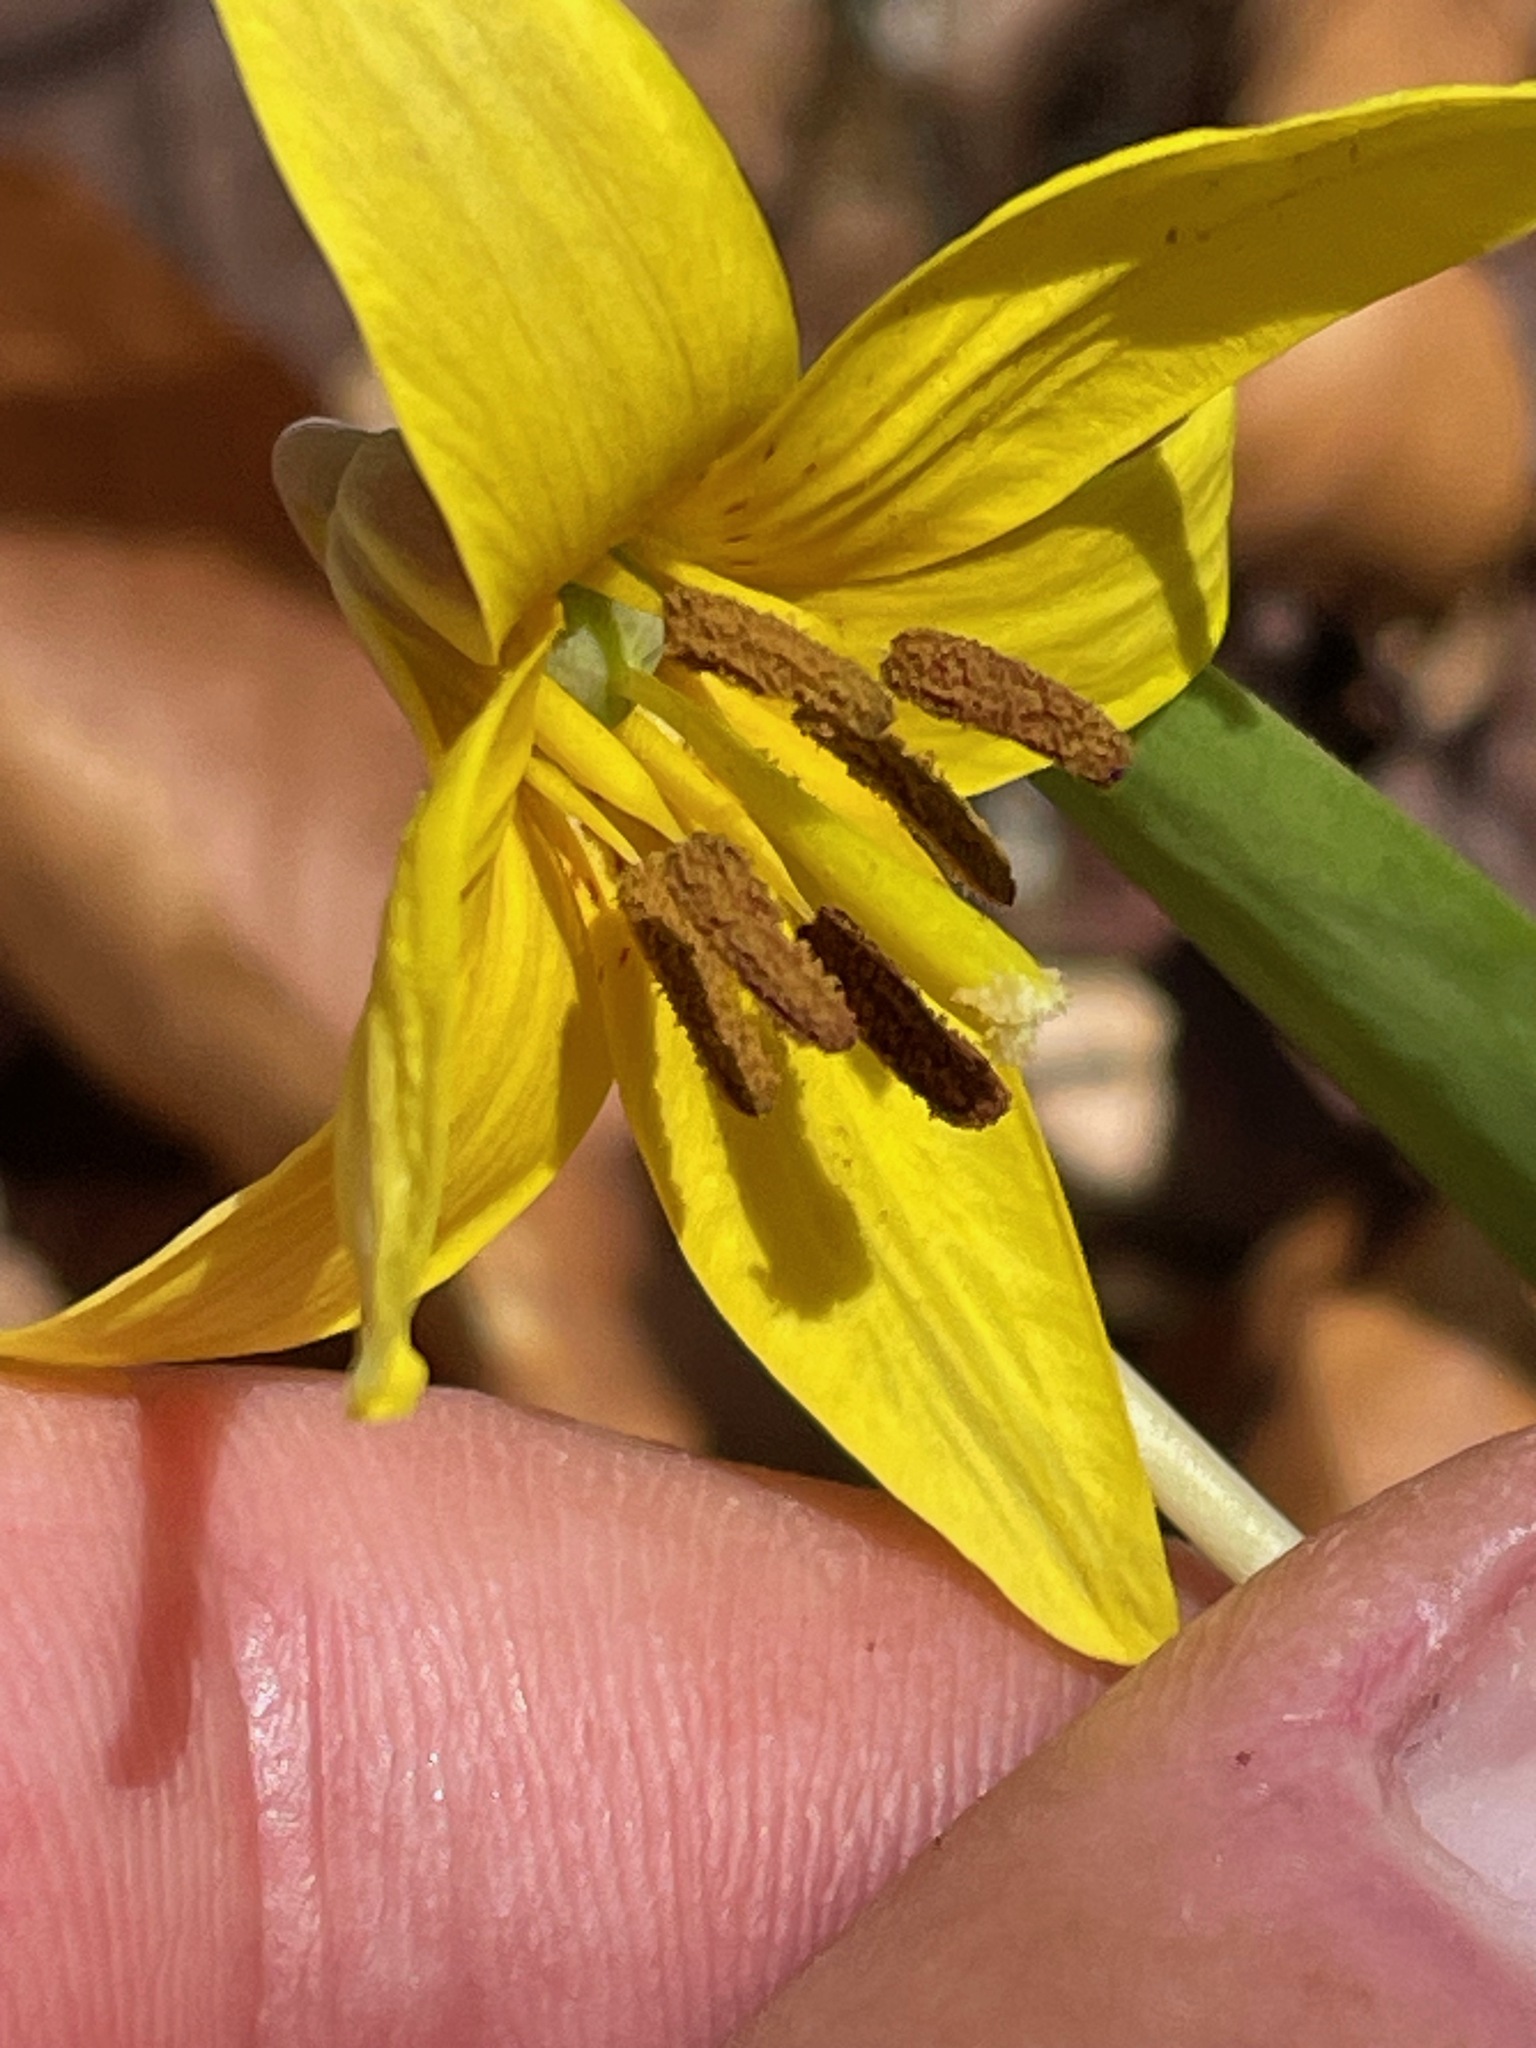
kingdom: Plantae
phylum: Tracheophyta
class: Liliopsida
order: Liliales
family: Liliaceae
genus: Erythronium
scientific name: Erythronium americanum
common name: Yellow adder's-tongue
